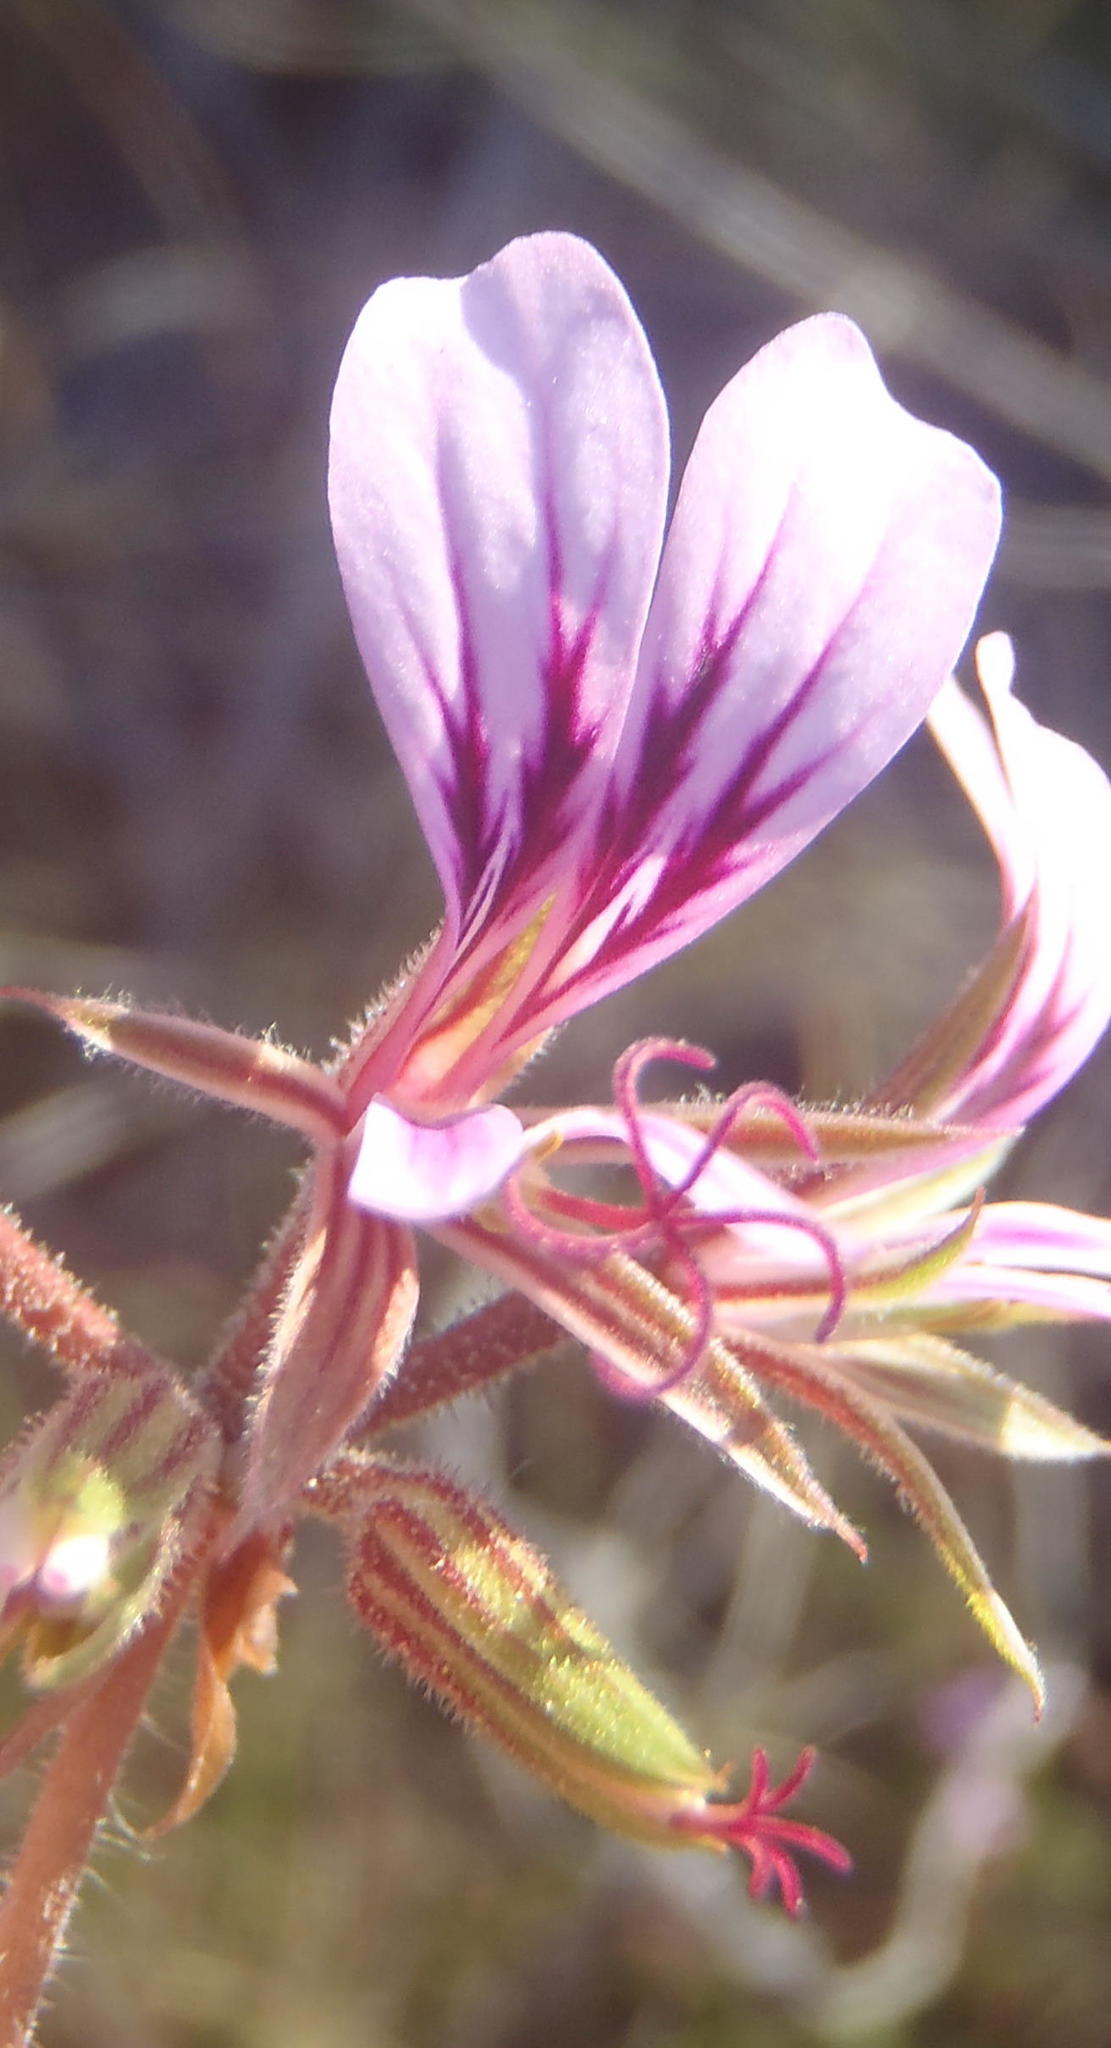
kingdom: Plantae
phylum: Tracheophyta
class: Magnoliopsida
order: Geraniales
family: Geraniaceae
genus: Pelargonium
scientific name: Pelargonium myrrhifolium
